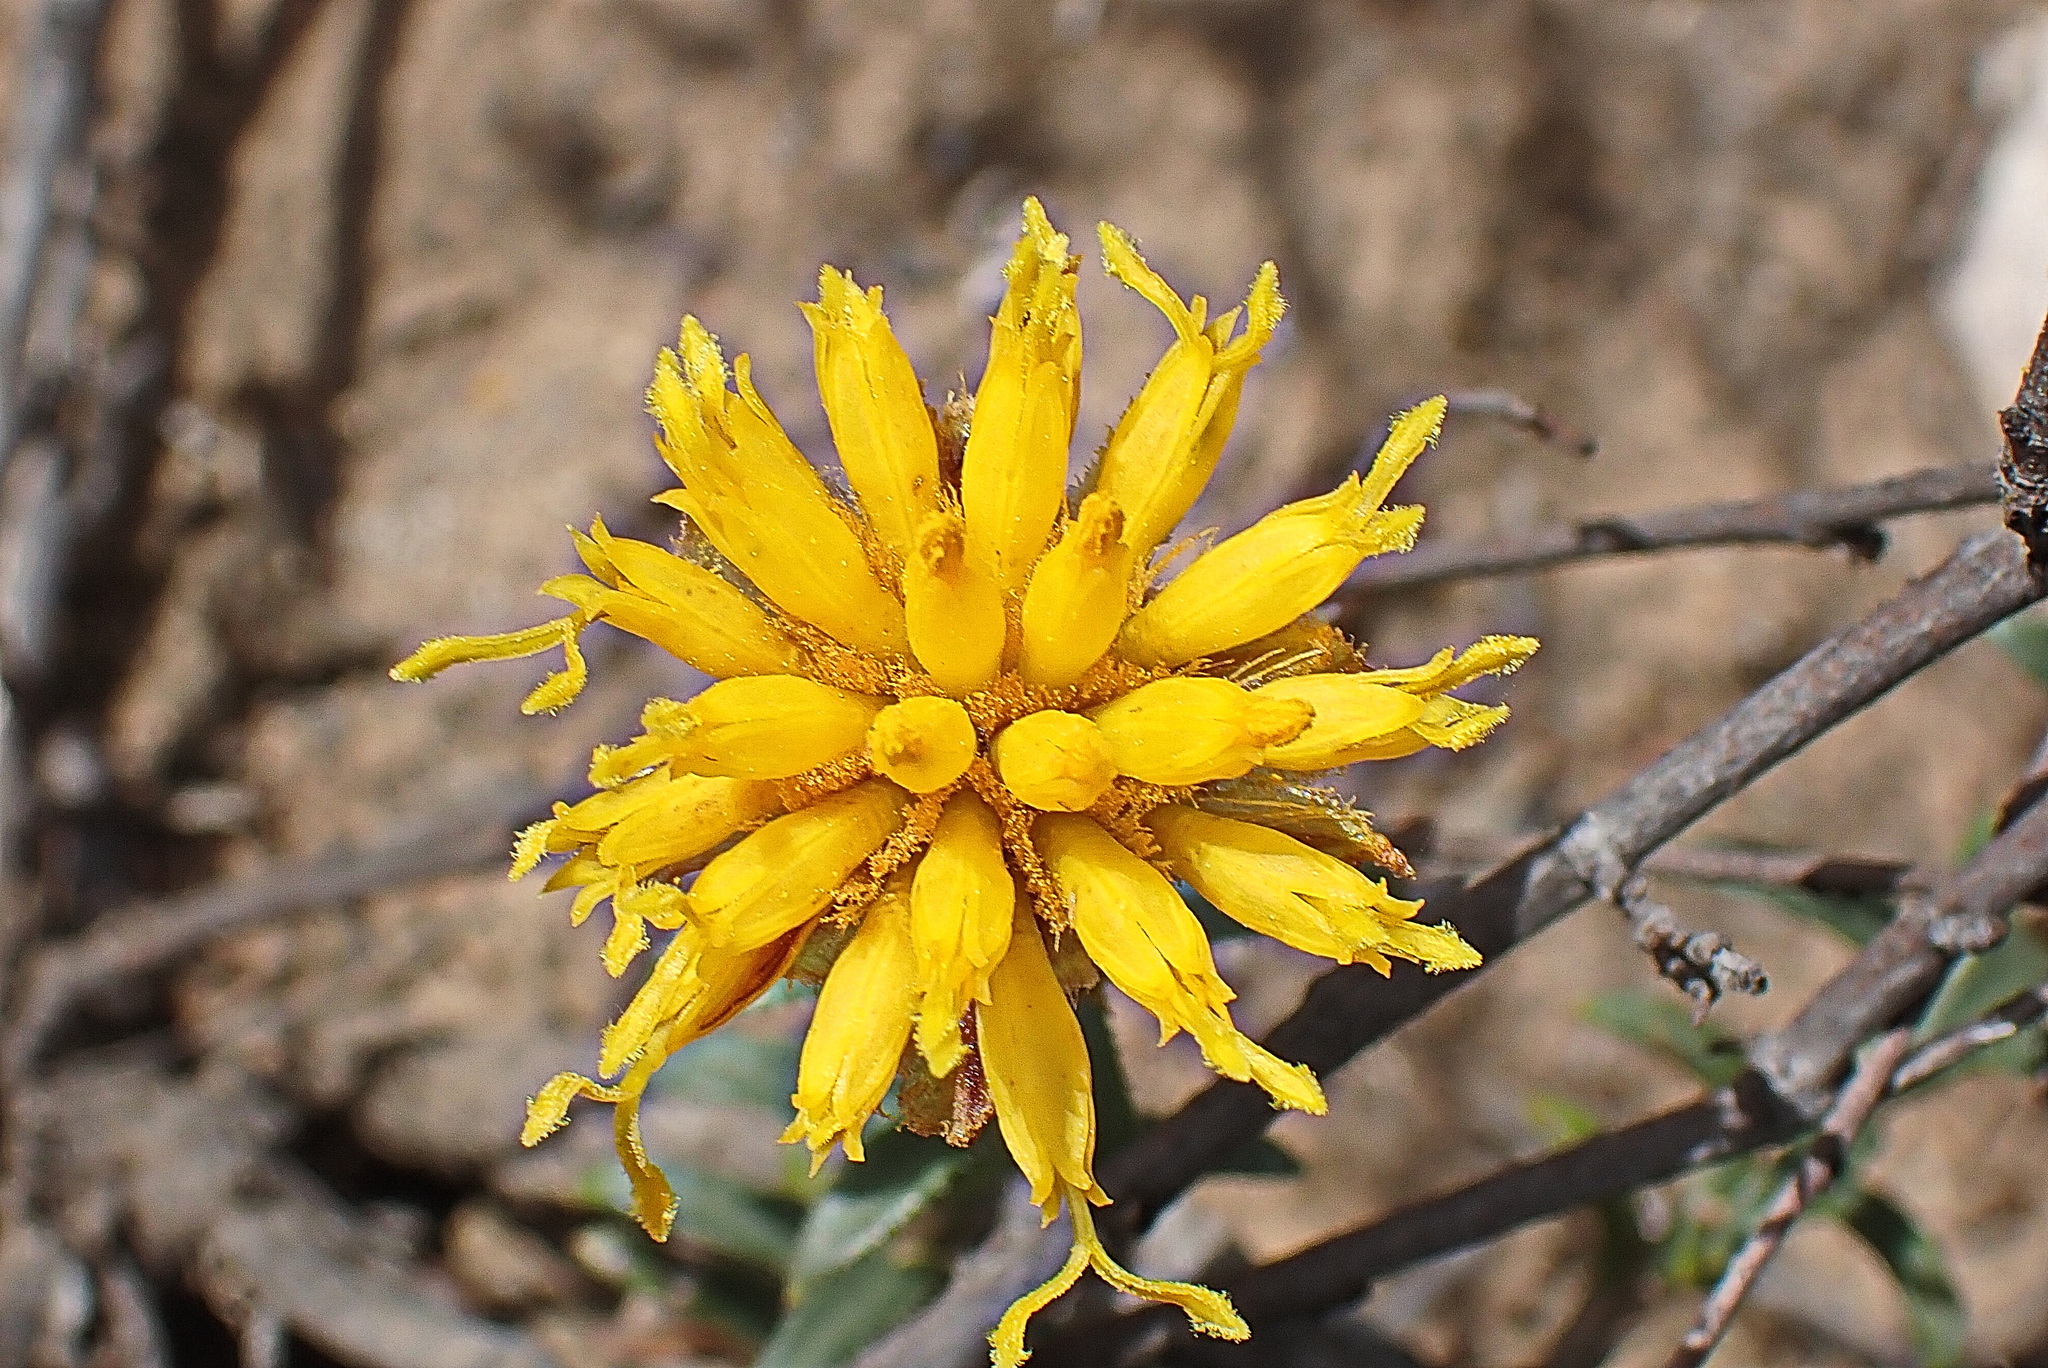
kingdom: Plantae
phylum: Tracheophyta
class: Magnoliopsida
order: Asterales
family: Asteraceae
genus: Pteronia
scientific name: Pteronia elongata
